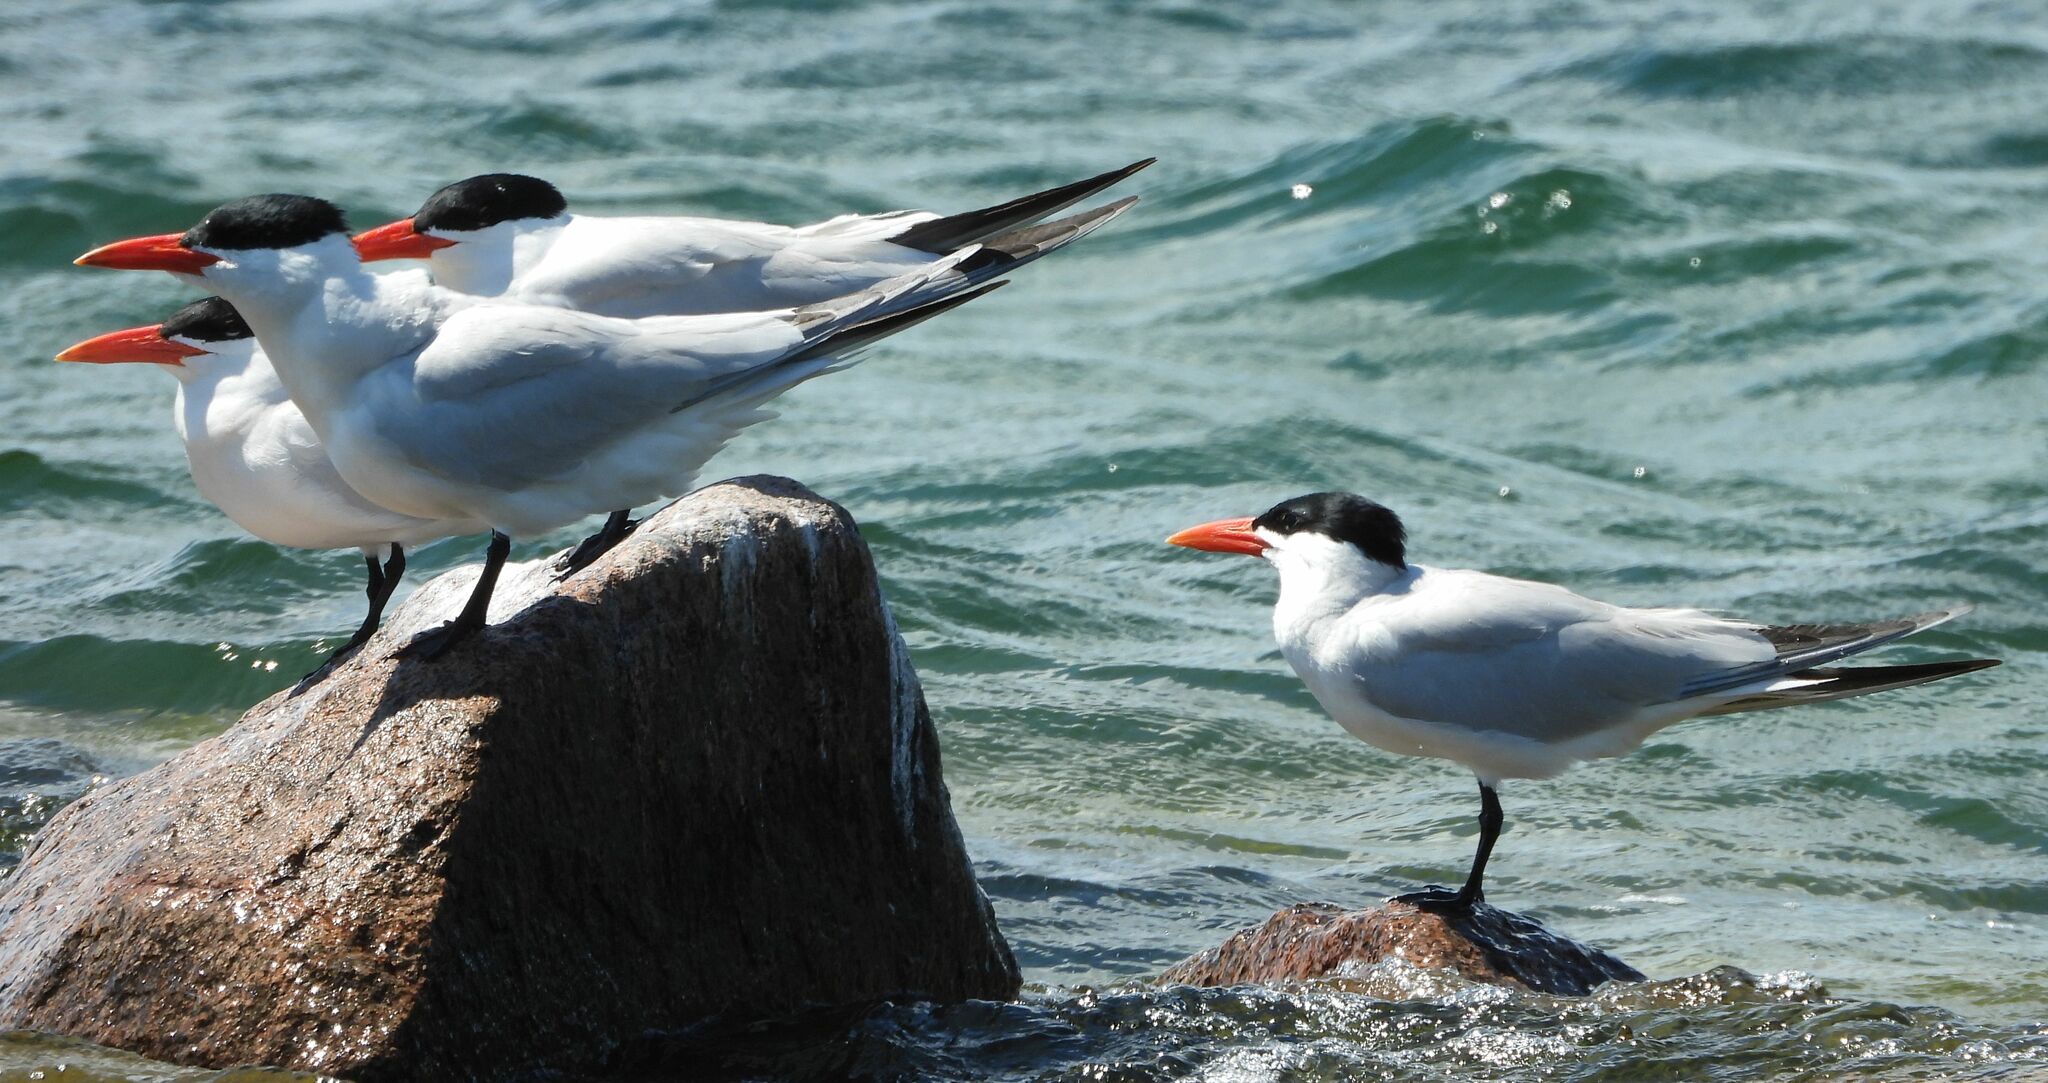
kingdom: Animalia
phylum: Chordata
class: Aves
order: Charadriiformes
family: Laridae
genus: Hydroprogne
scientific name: Hydroprogne caspia
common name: Caspian tern
